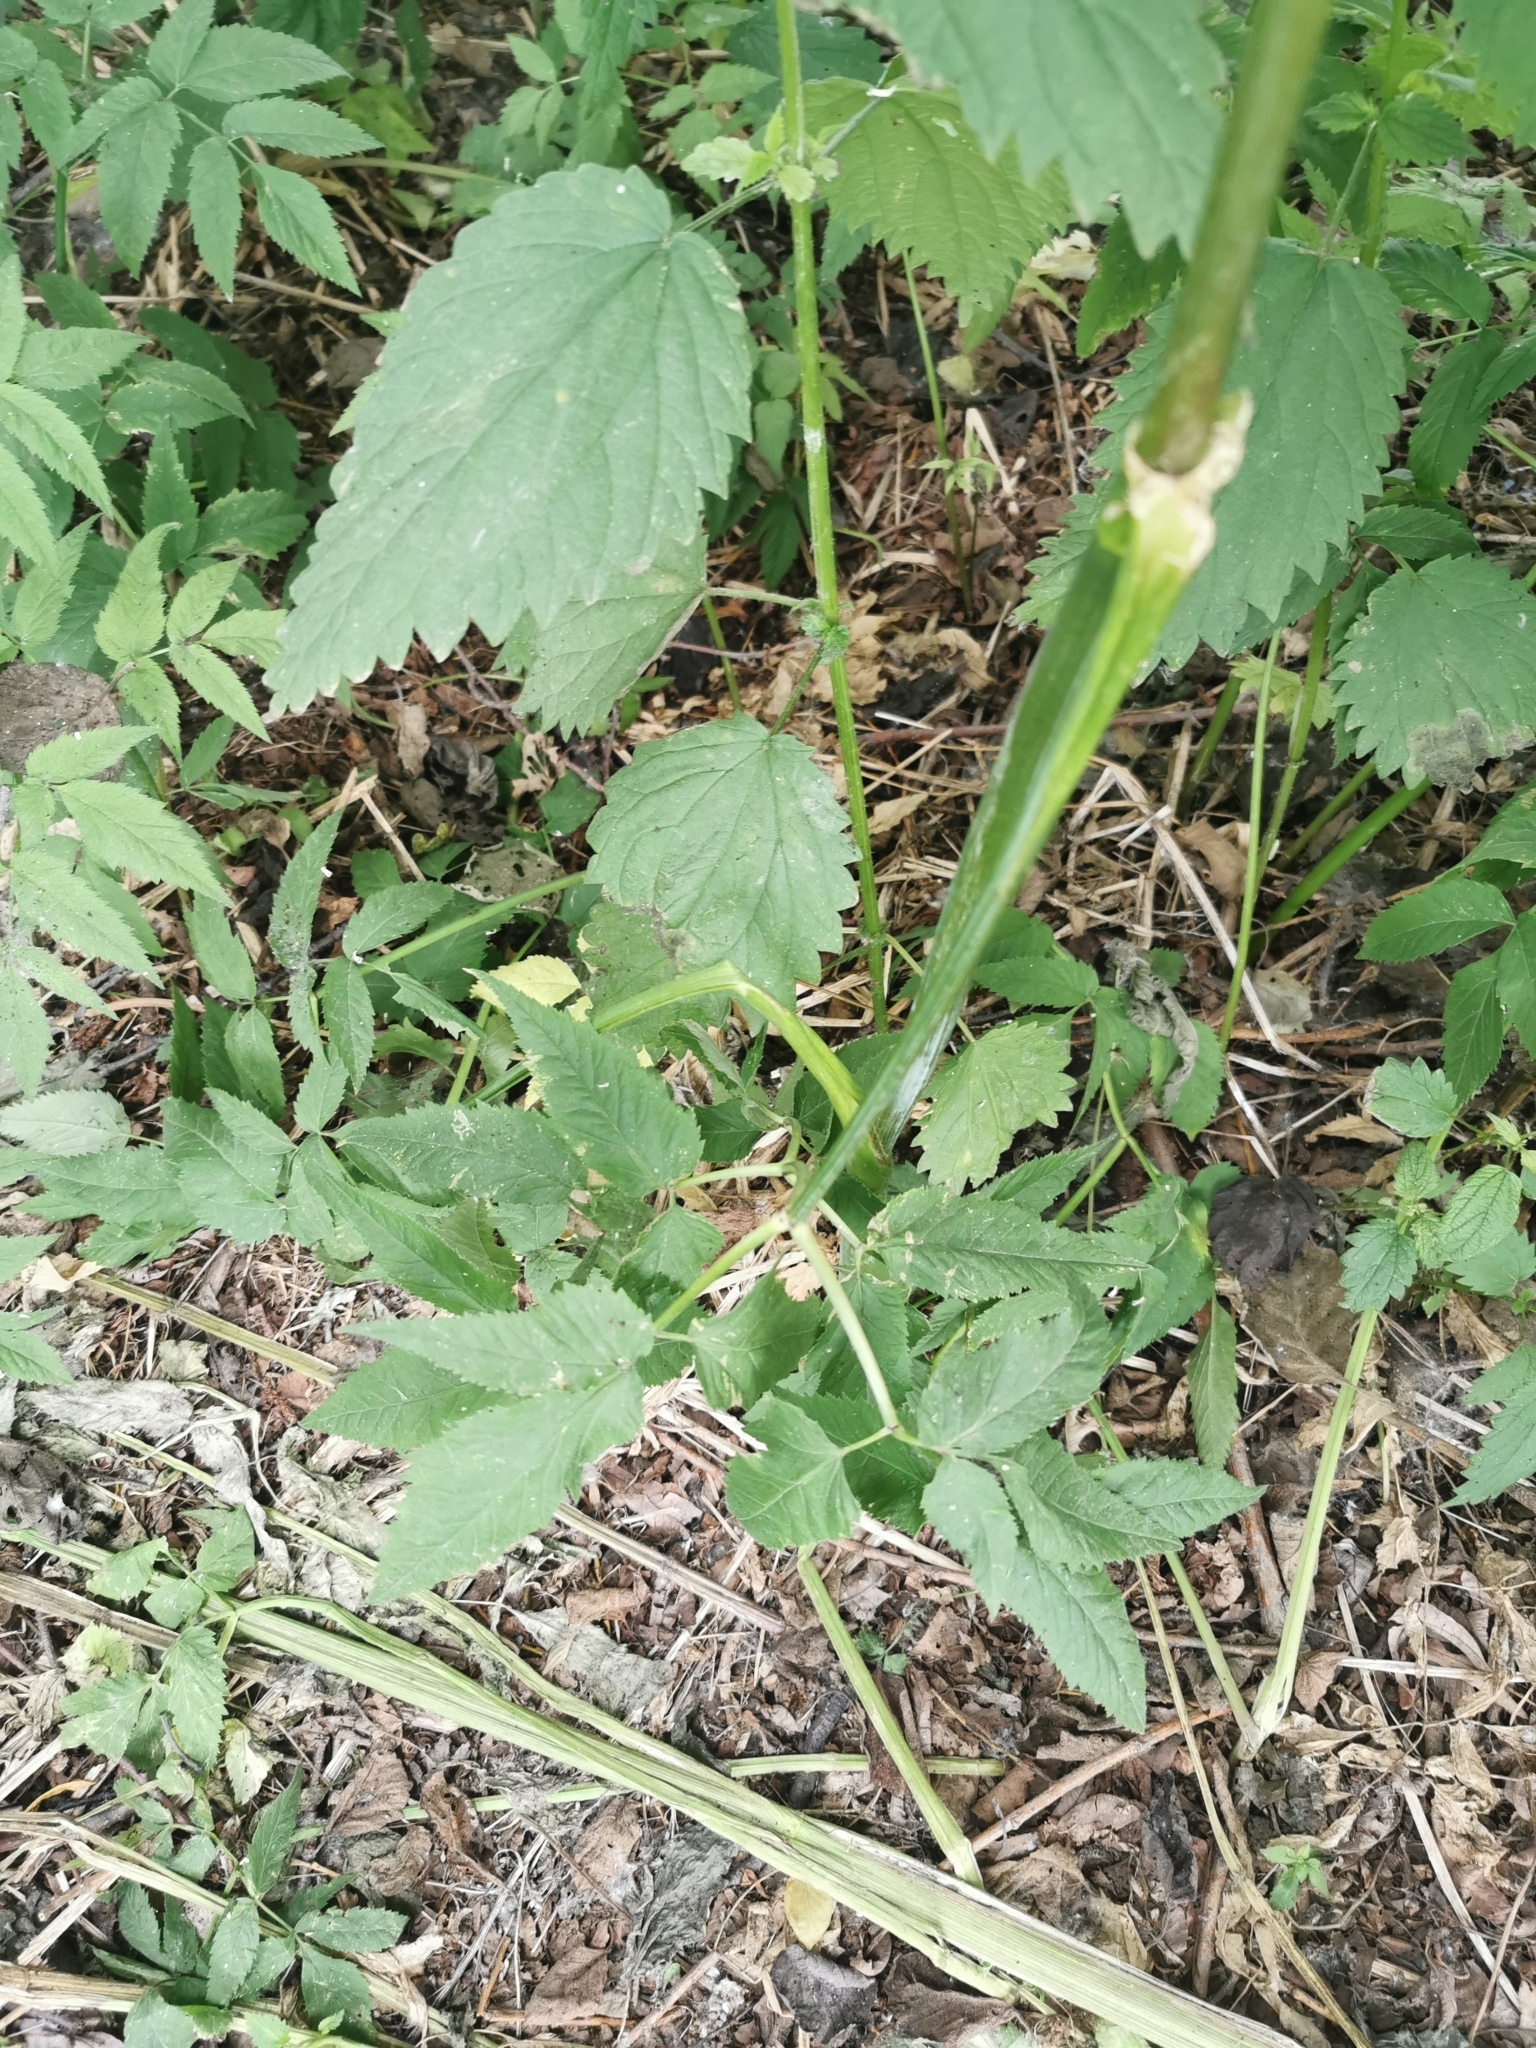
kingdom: Plantae
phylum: Tracheophyta
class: Magnoliopsida
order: Apiales
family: Apiaceae
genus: Aegopodium
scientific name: Aegopodium podagraria
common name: Ground-elder
